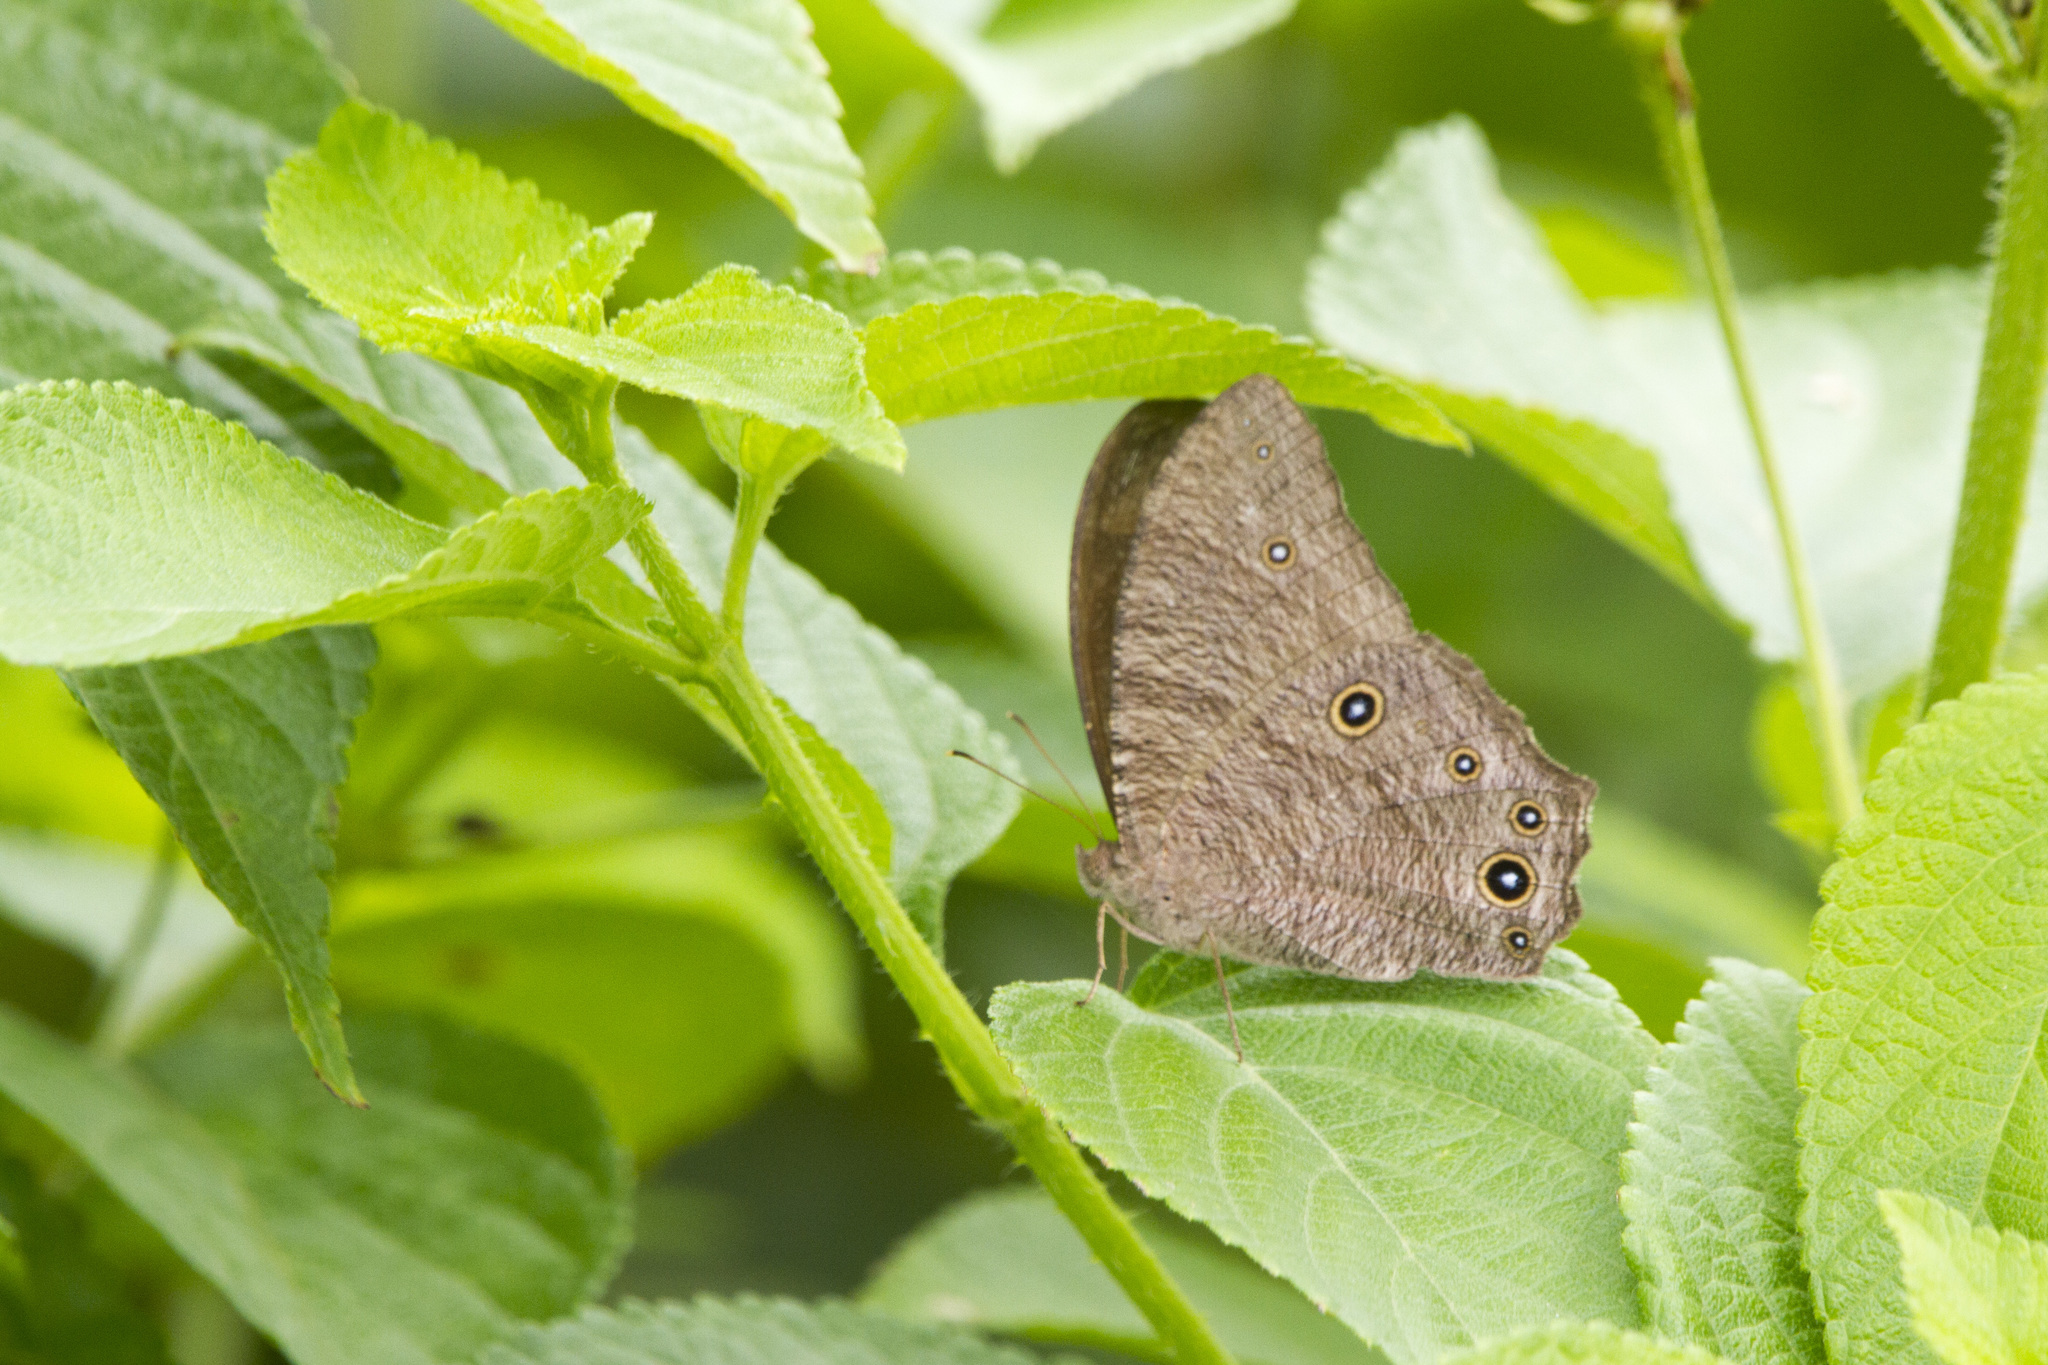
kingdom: Animalia
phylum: Arthropoda
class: Insecta
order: Lepidoptera
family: Nymphalidae
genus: Melanitis
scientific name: Melanitis leda
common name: Twilight brown
